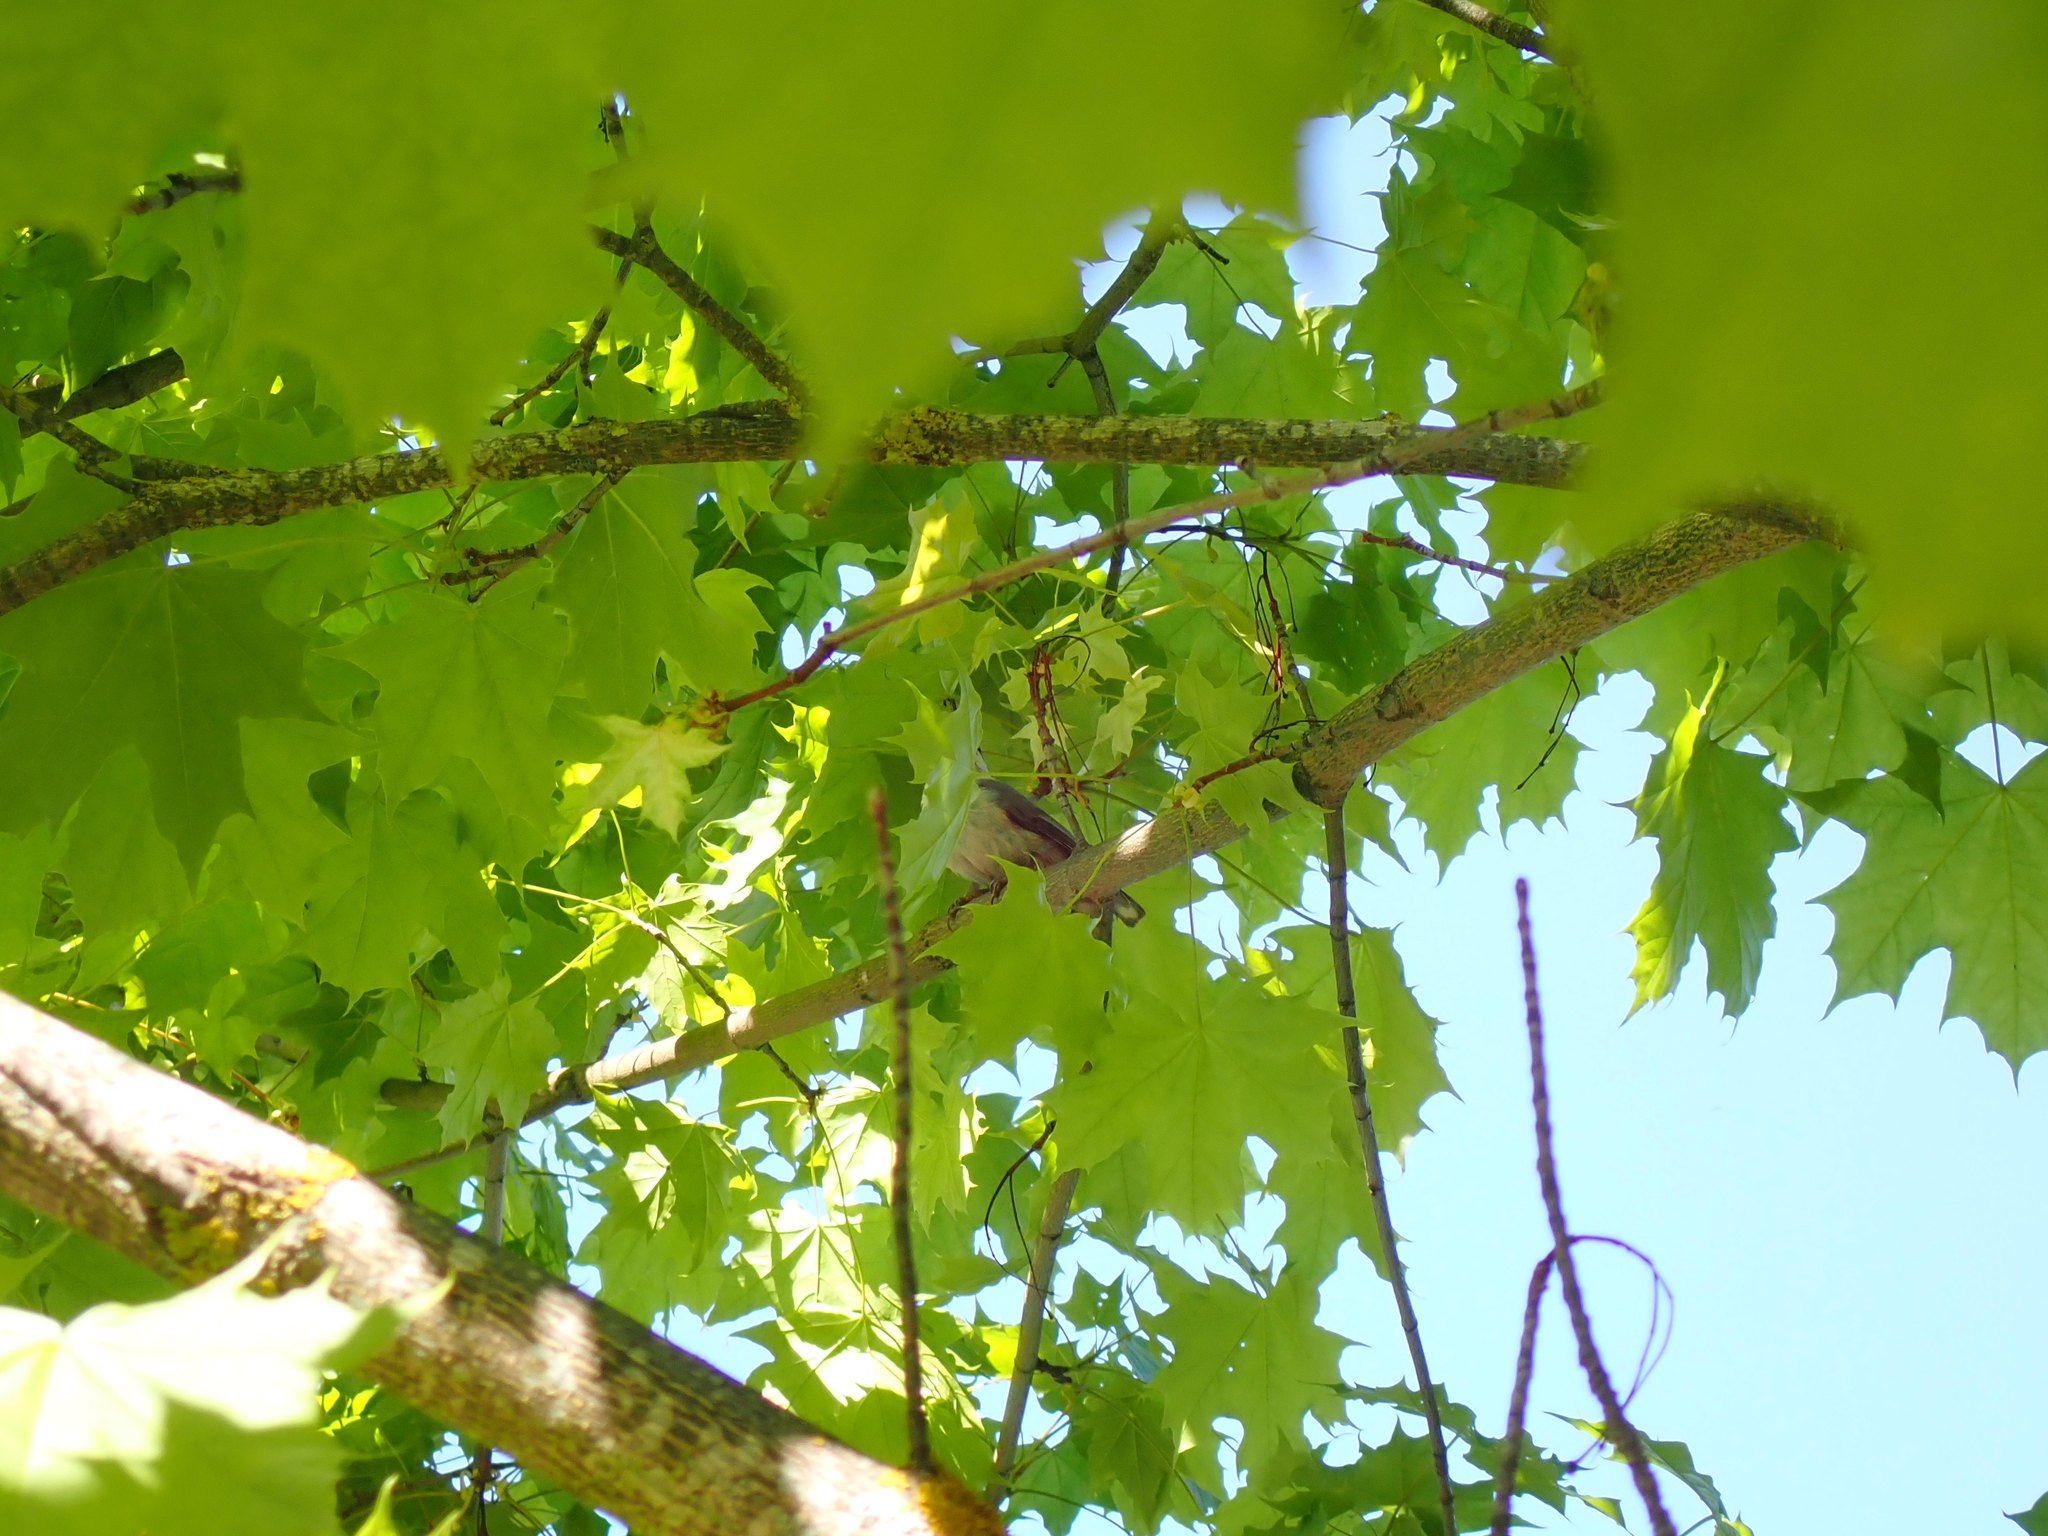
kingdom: Animalia
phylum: Chordata
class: Aves
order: Passeriformes
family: Sittidae
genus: Sitta
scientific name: Sitta europaea
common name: Eurasian nuthatch
